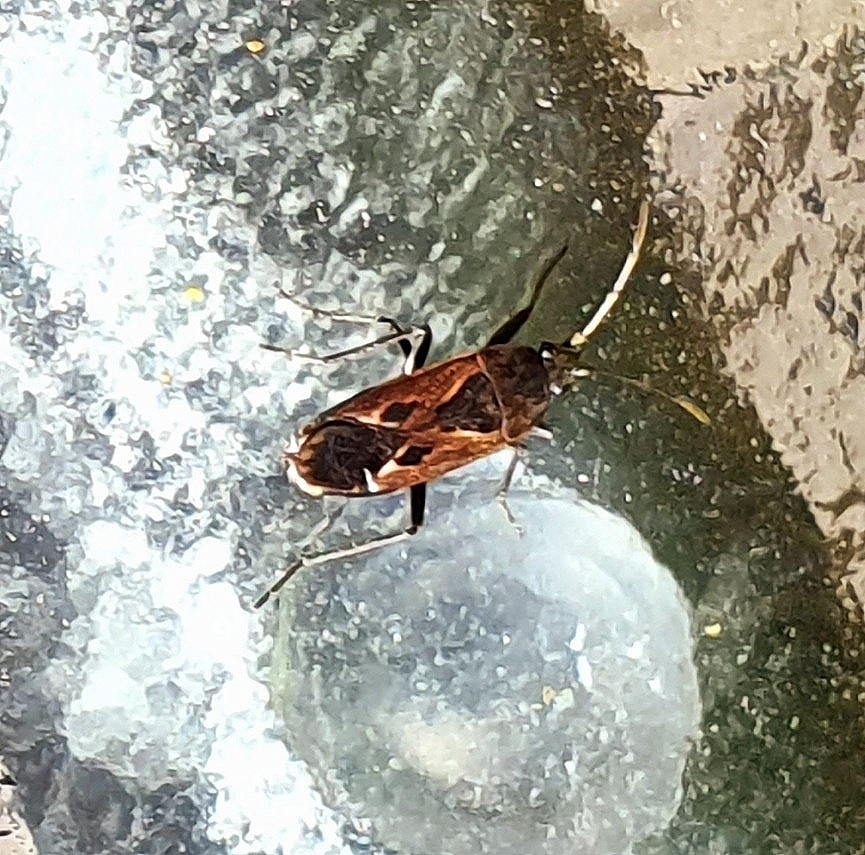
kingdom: Animalia
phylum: Arthropoda
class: Insecta
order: Hemiptera
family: Rhyparochromidae
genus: Rhyparochromus
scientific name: Rhyparochromus pini
